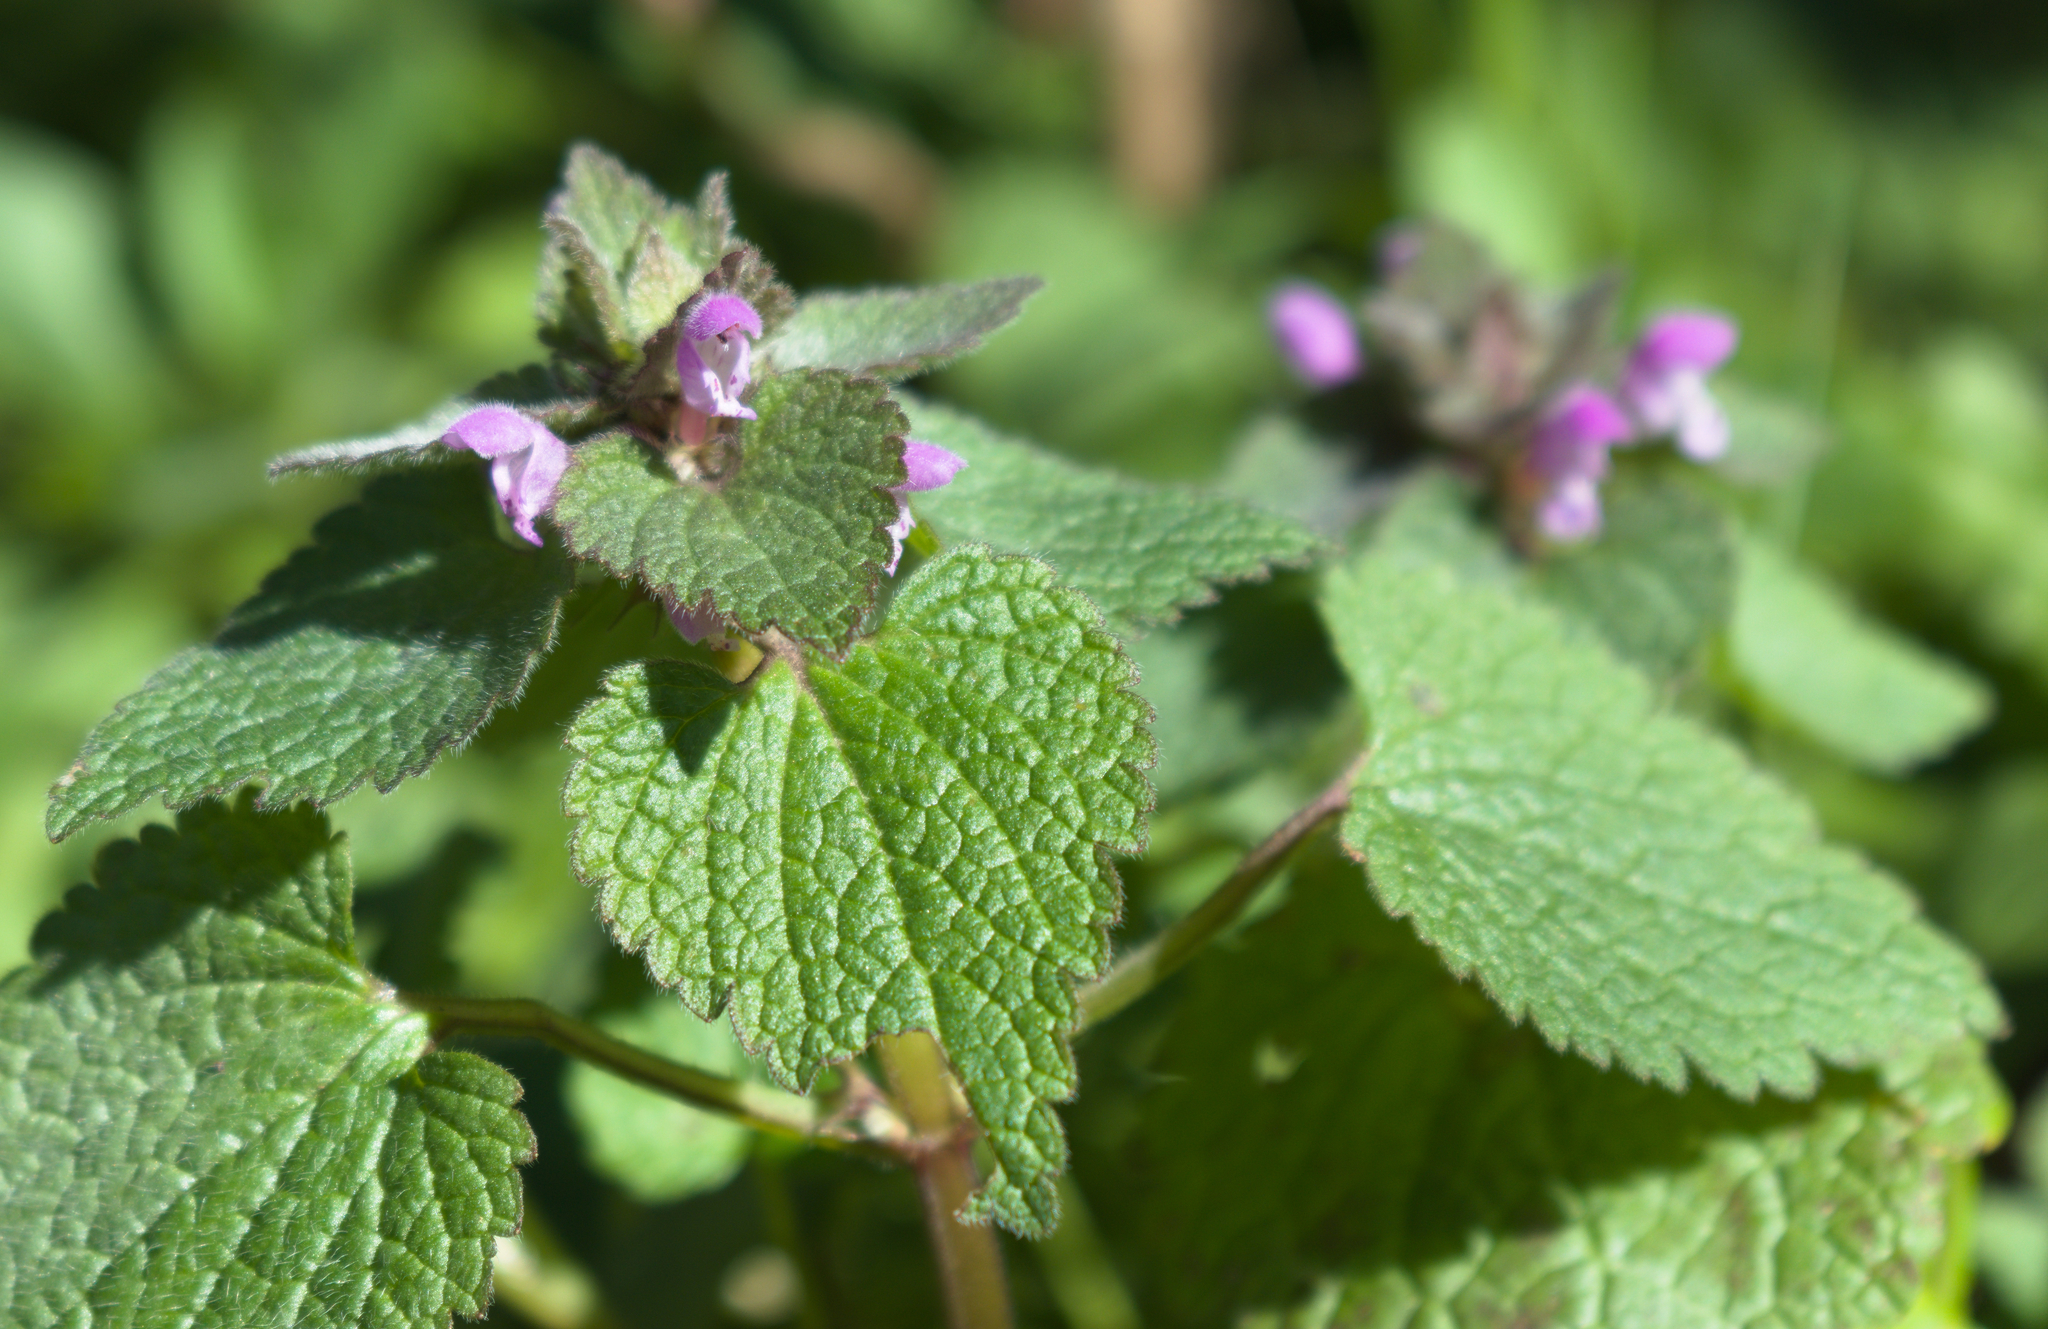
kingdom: Plantae
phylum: Tracheophyta
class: Magnoliopsida
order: Lamiales
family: Lamiaceae
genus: Lamium
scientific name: Lamium purpureum
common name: Red dead-nettle
